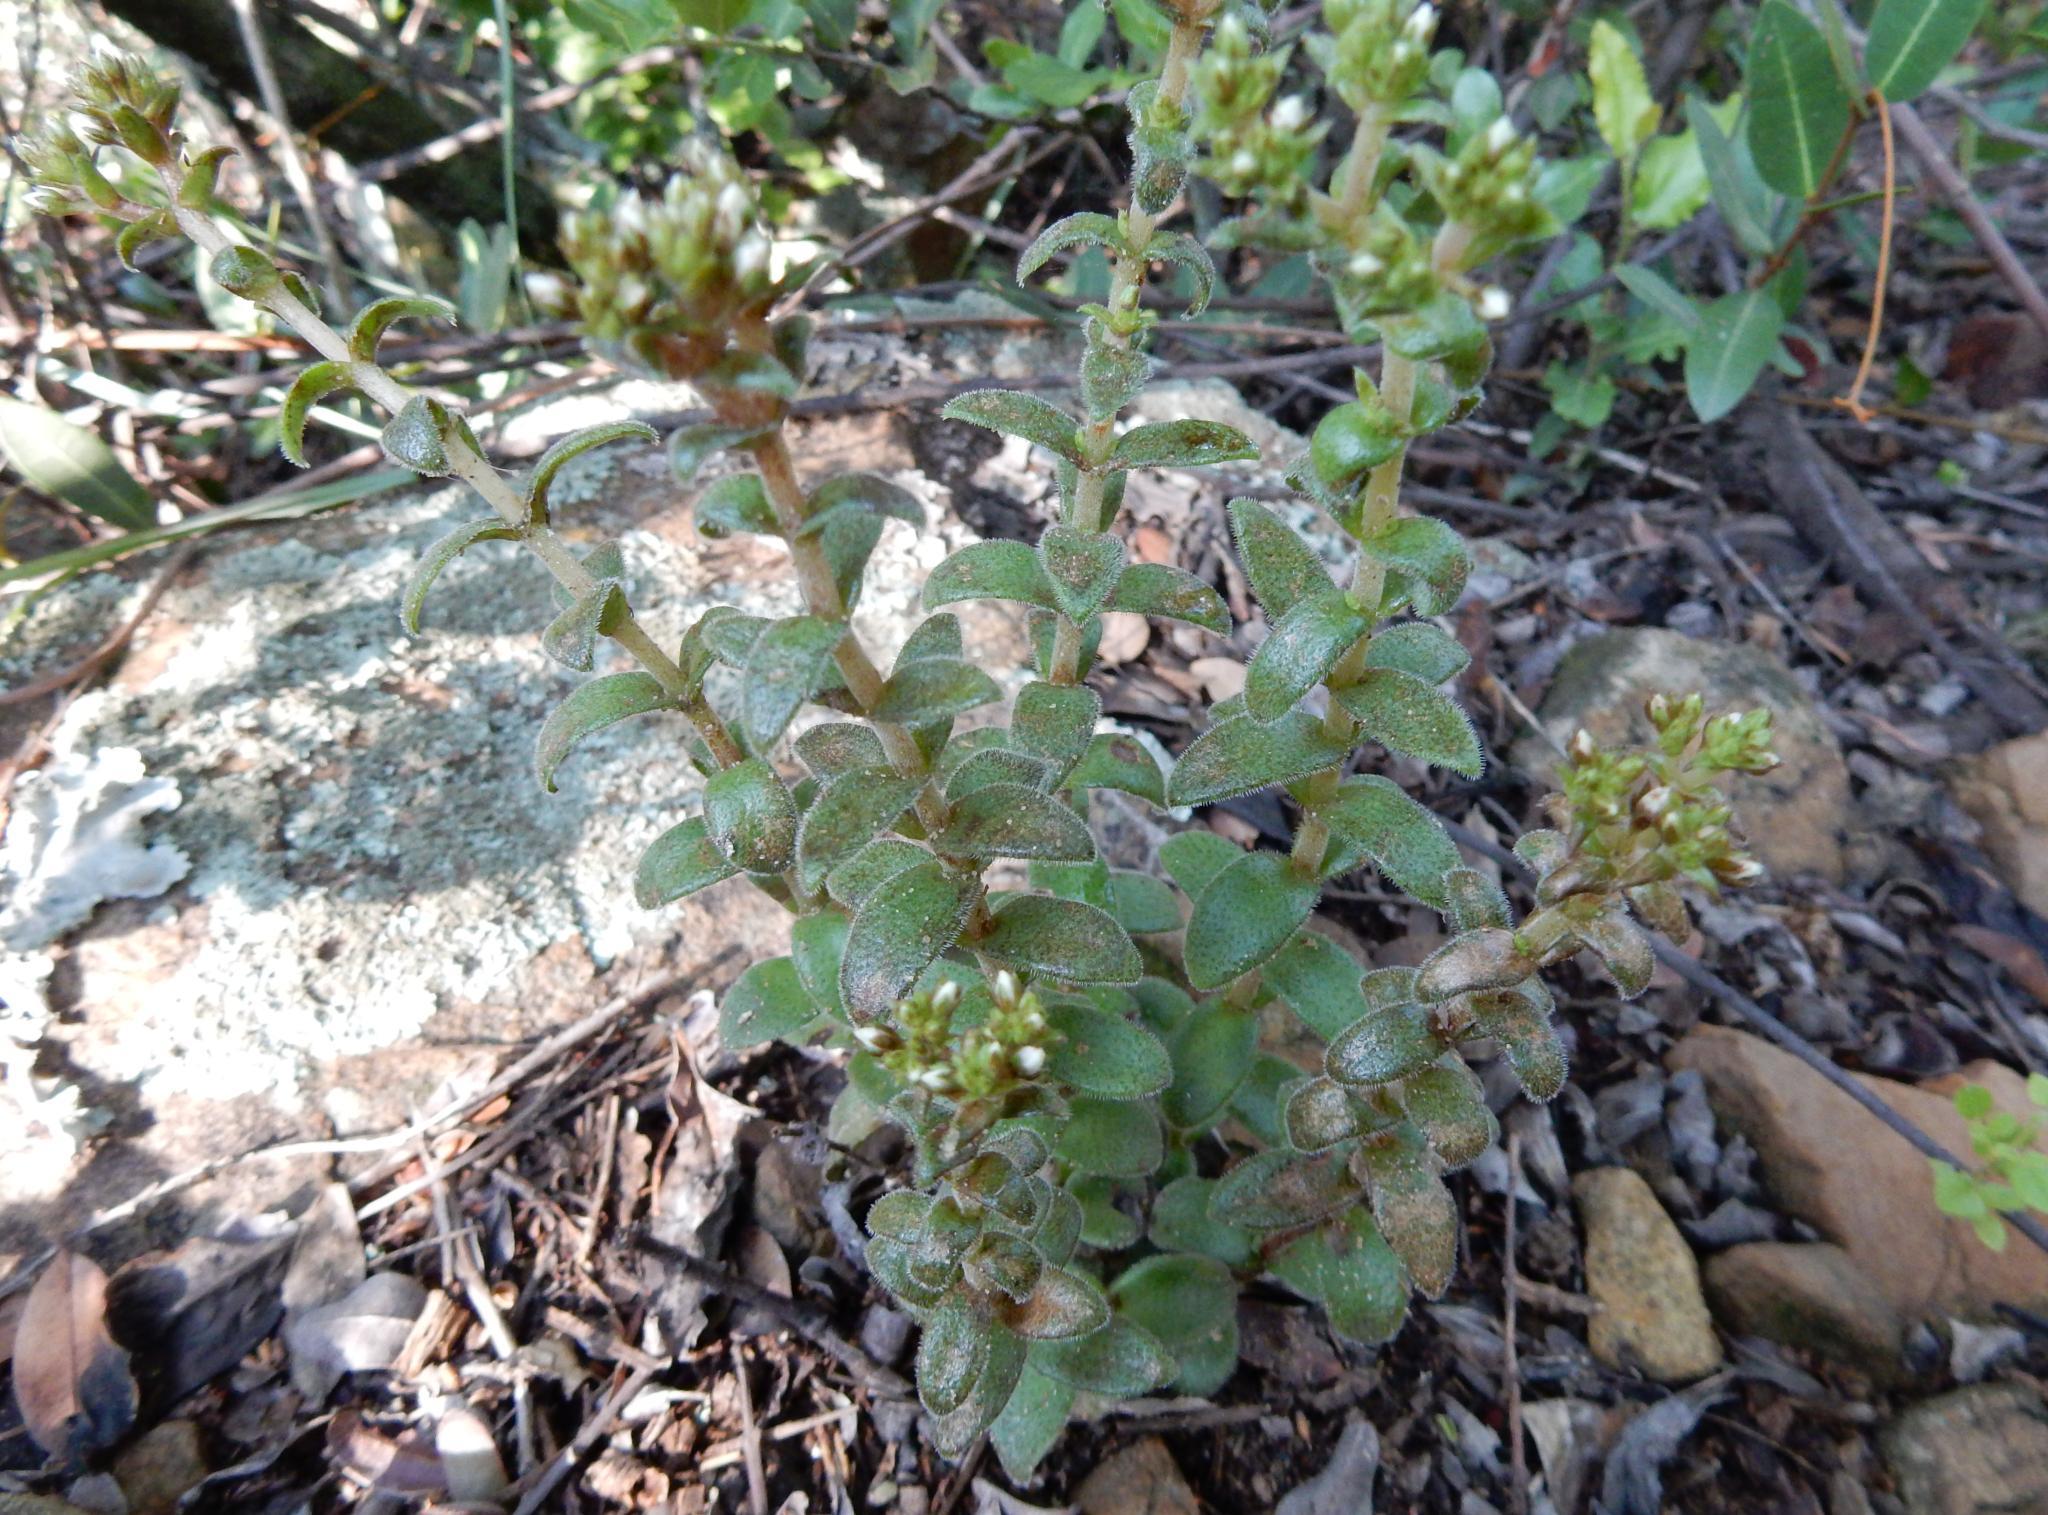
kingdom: Plantae
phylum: Tracheophyta
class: Magnoliopsida
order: Saxifragales
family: Crassulaceae
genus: Crassula
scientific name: Crassula setulosa
